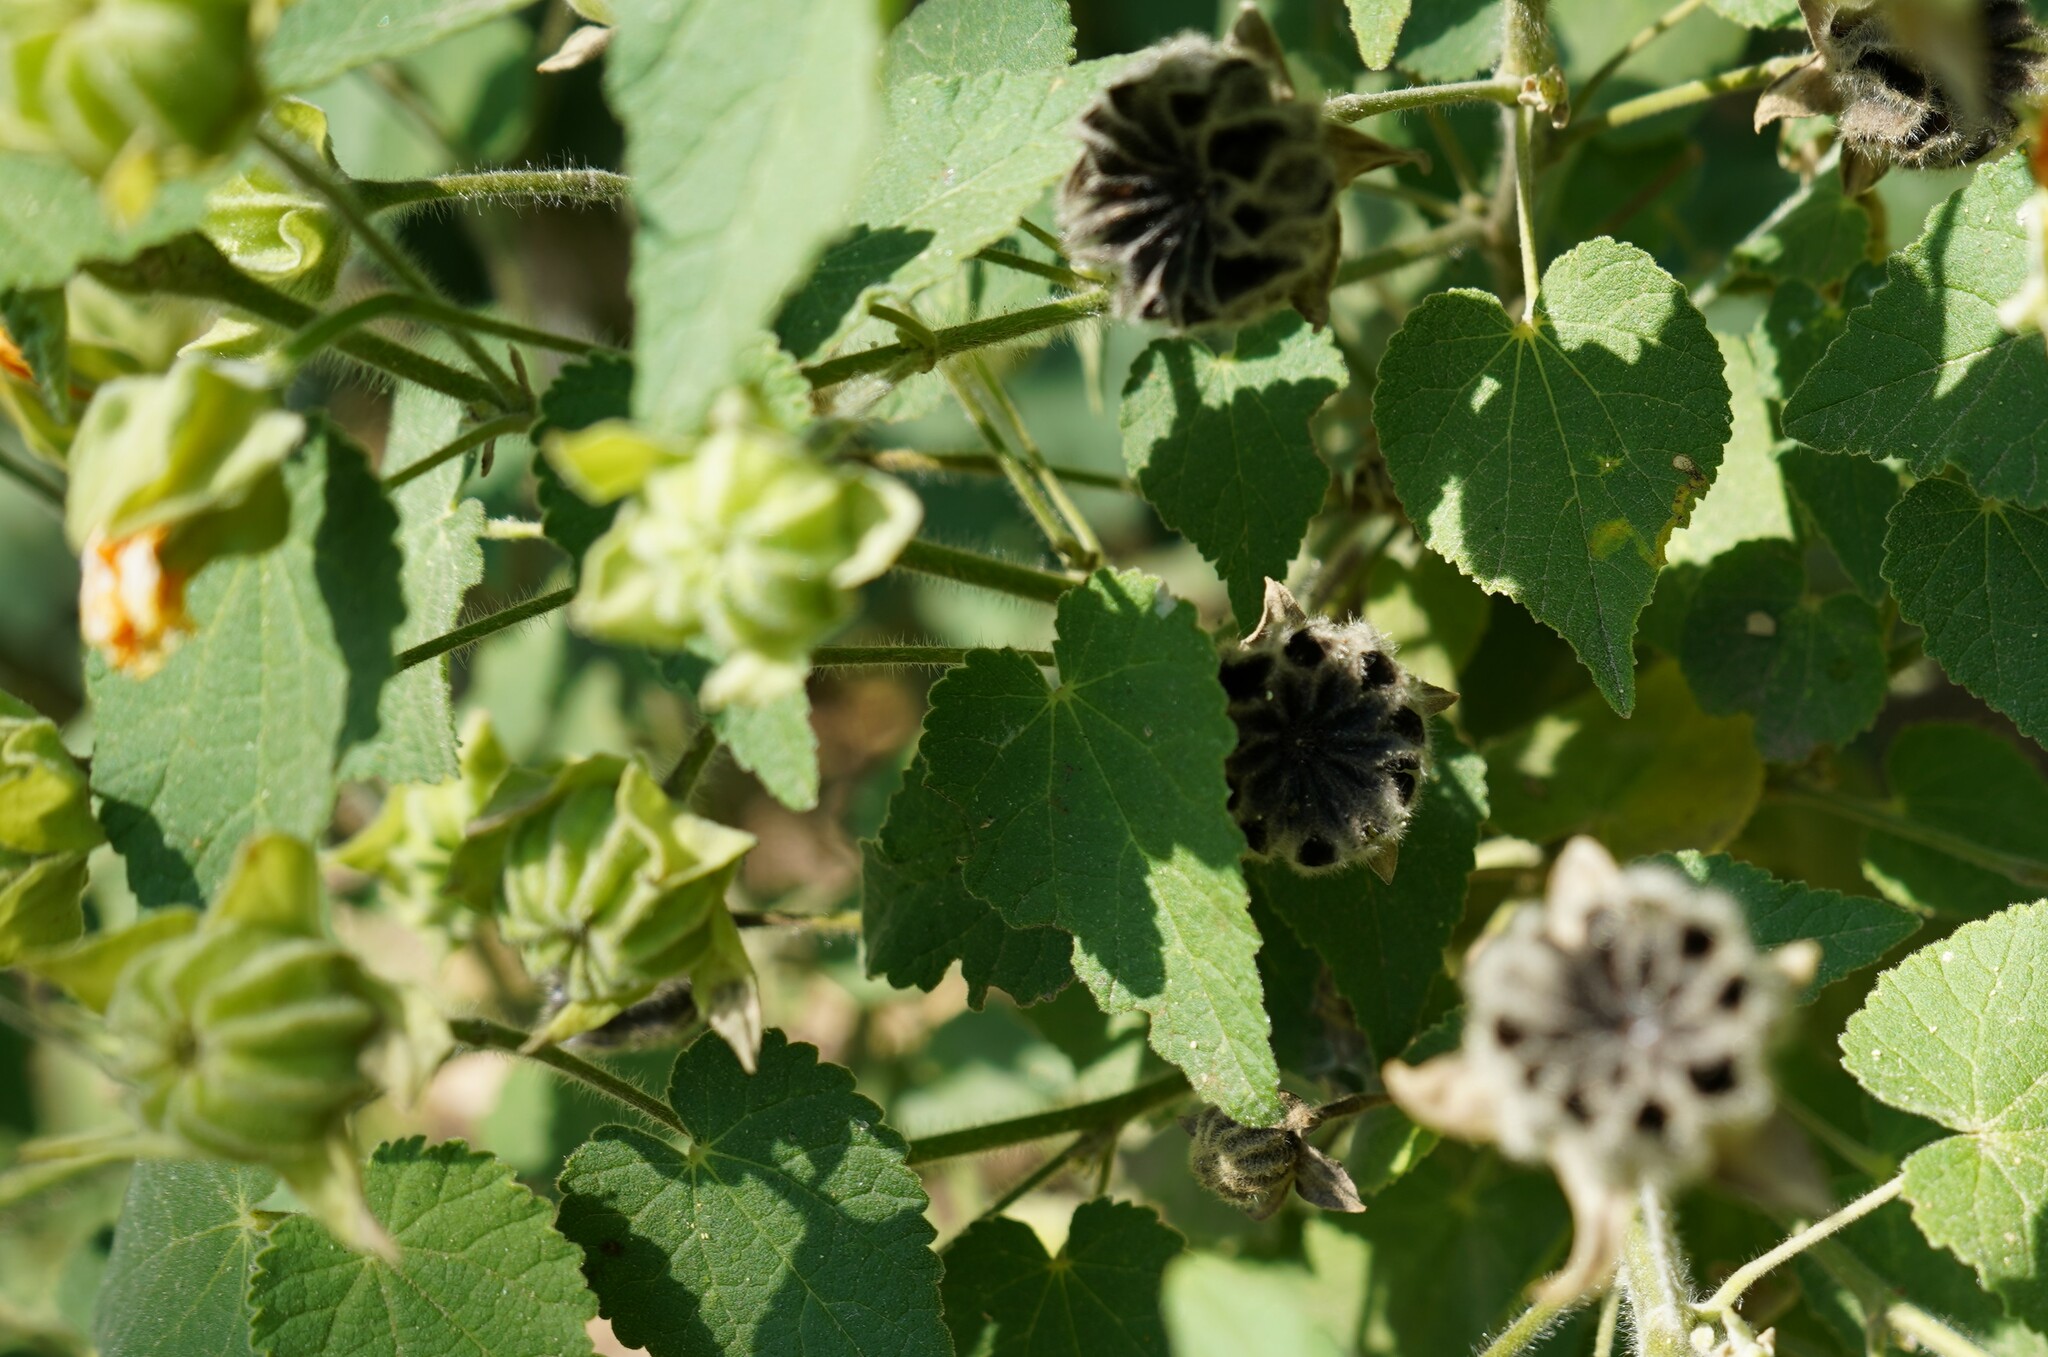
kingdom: Plantae
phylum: Tracheophyta
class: Magnoliopsida
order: Malvales
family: Malvaceae
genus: Abutilon
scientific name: Abutilon grandifolium
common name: Hairy abutilon
